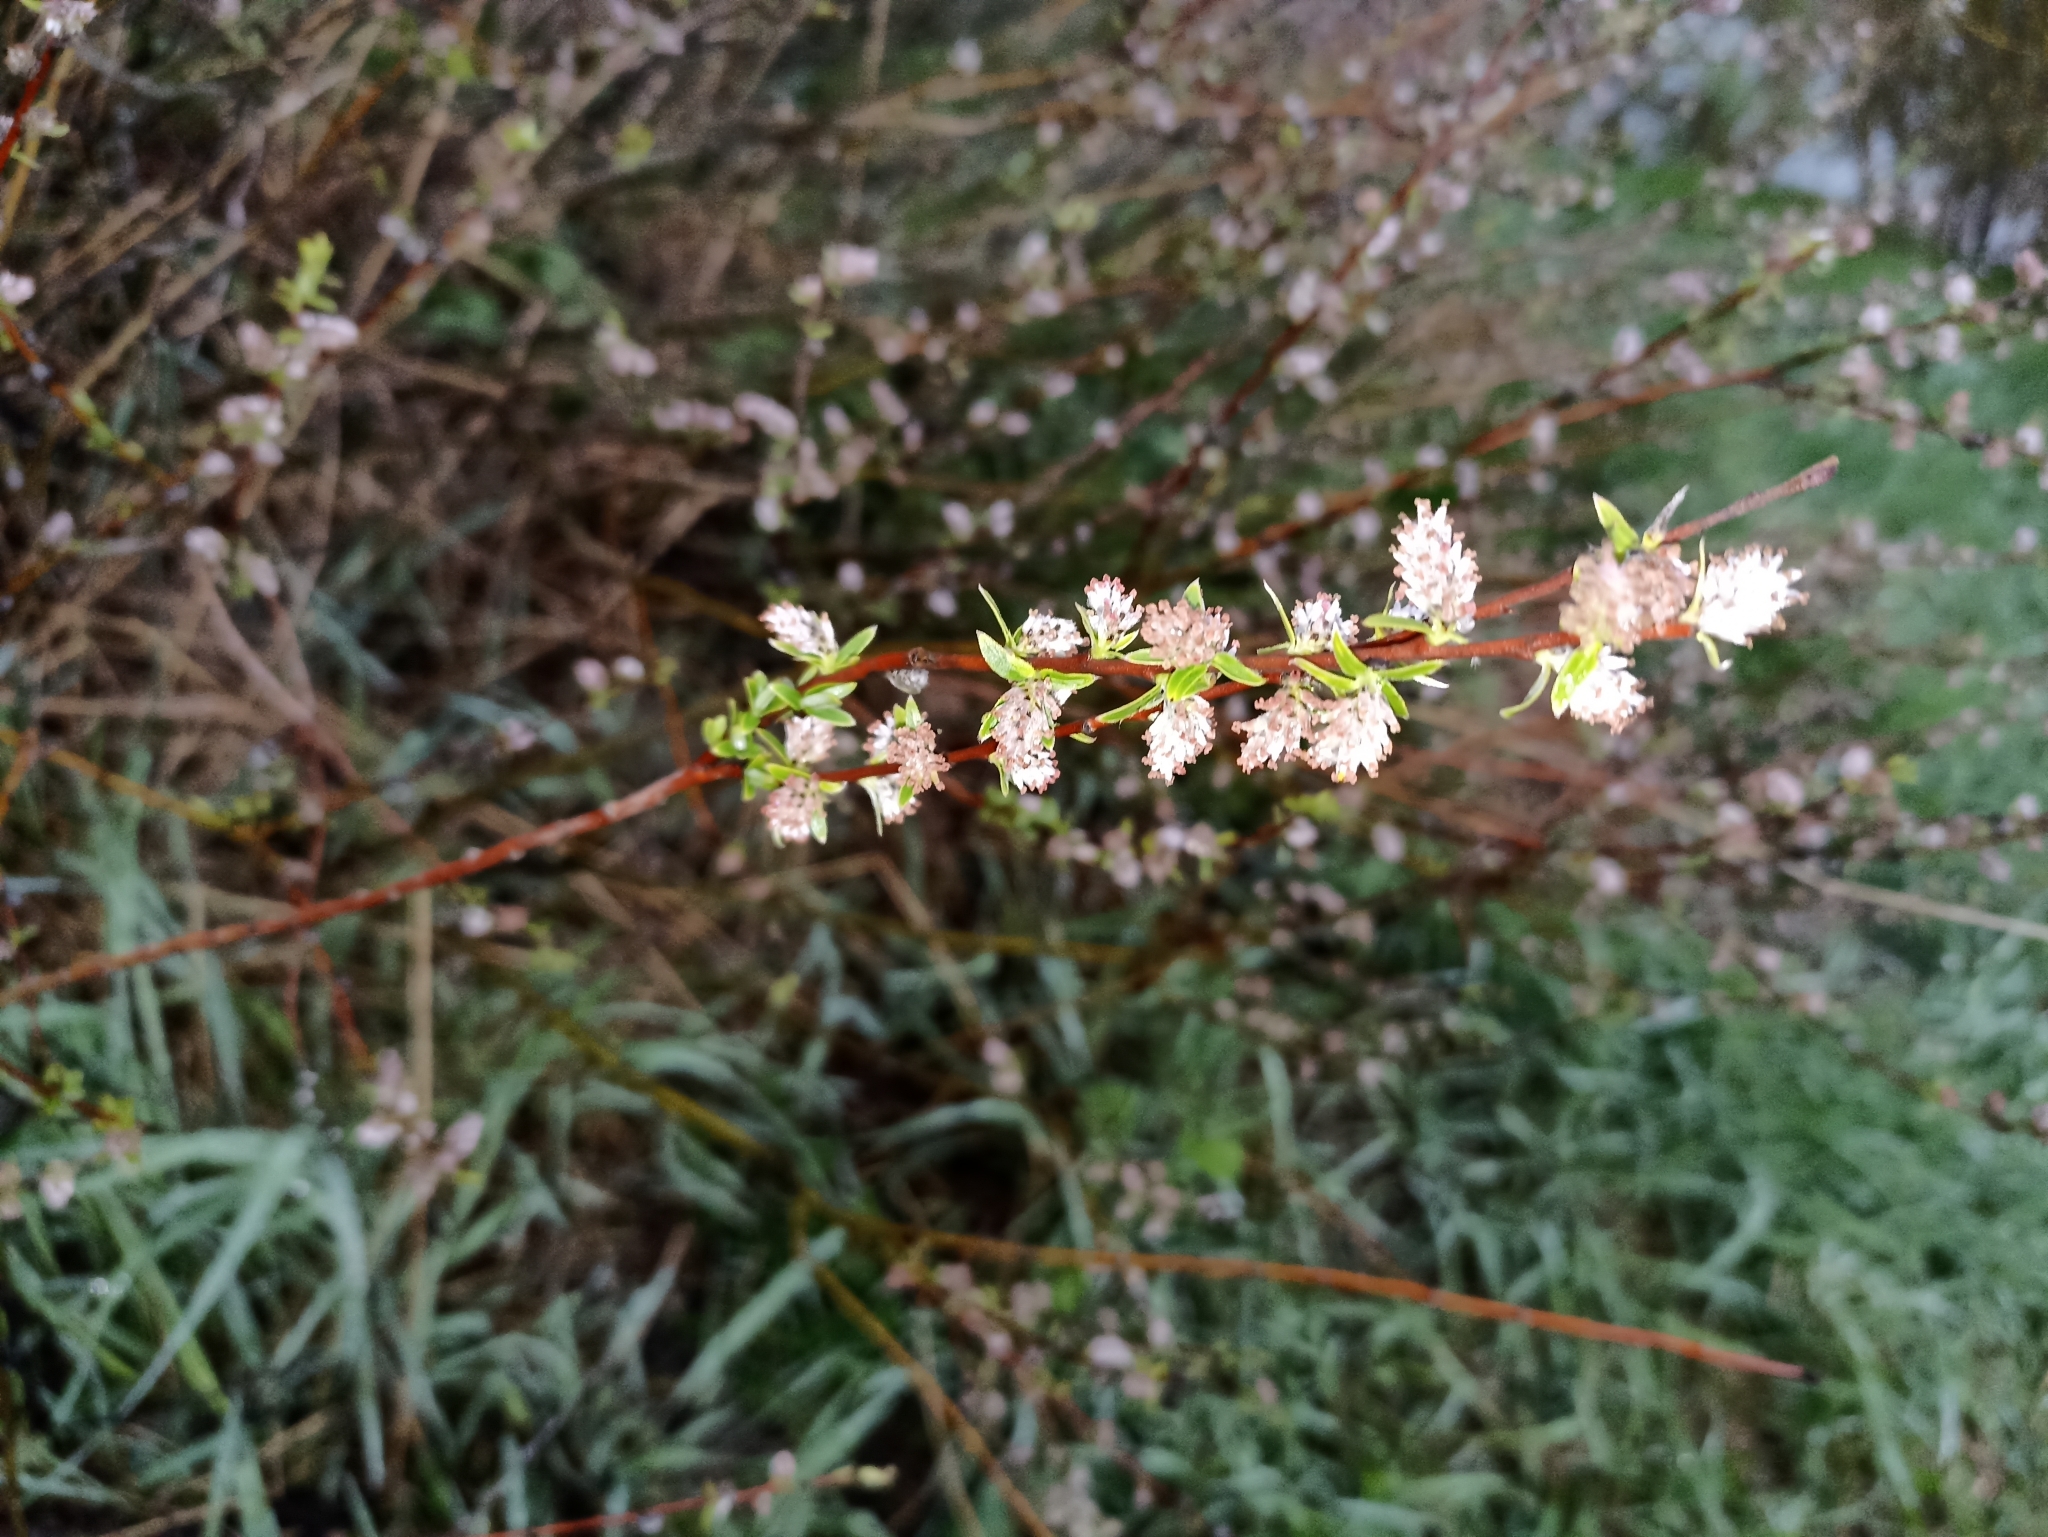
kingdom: Plantae
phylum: Tracheophyta
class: Magnoliopsida
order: Malpighiales
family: Salicaceae
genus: Salix
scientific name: Salix rosmarinifolia
